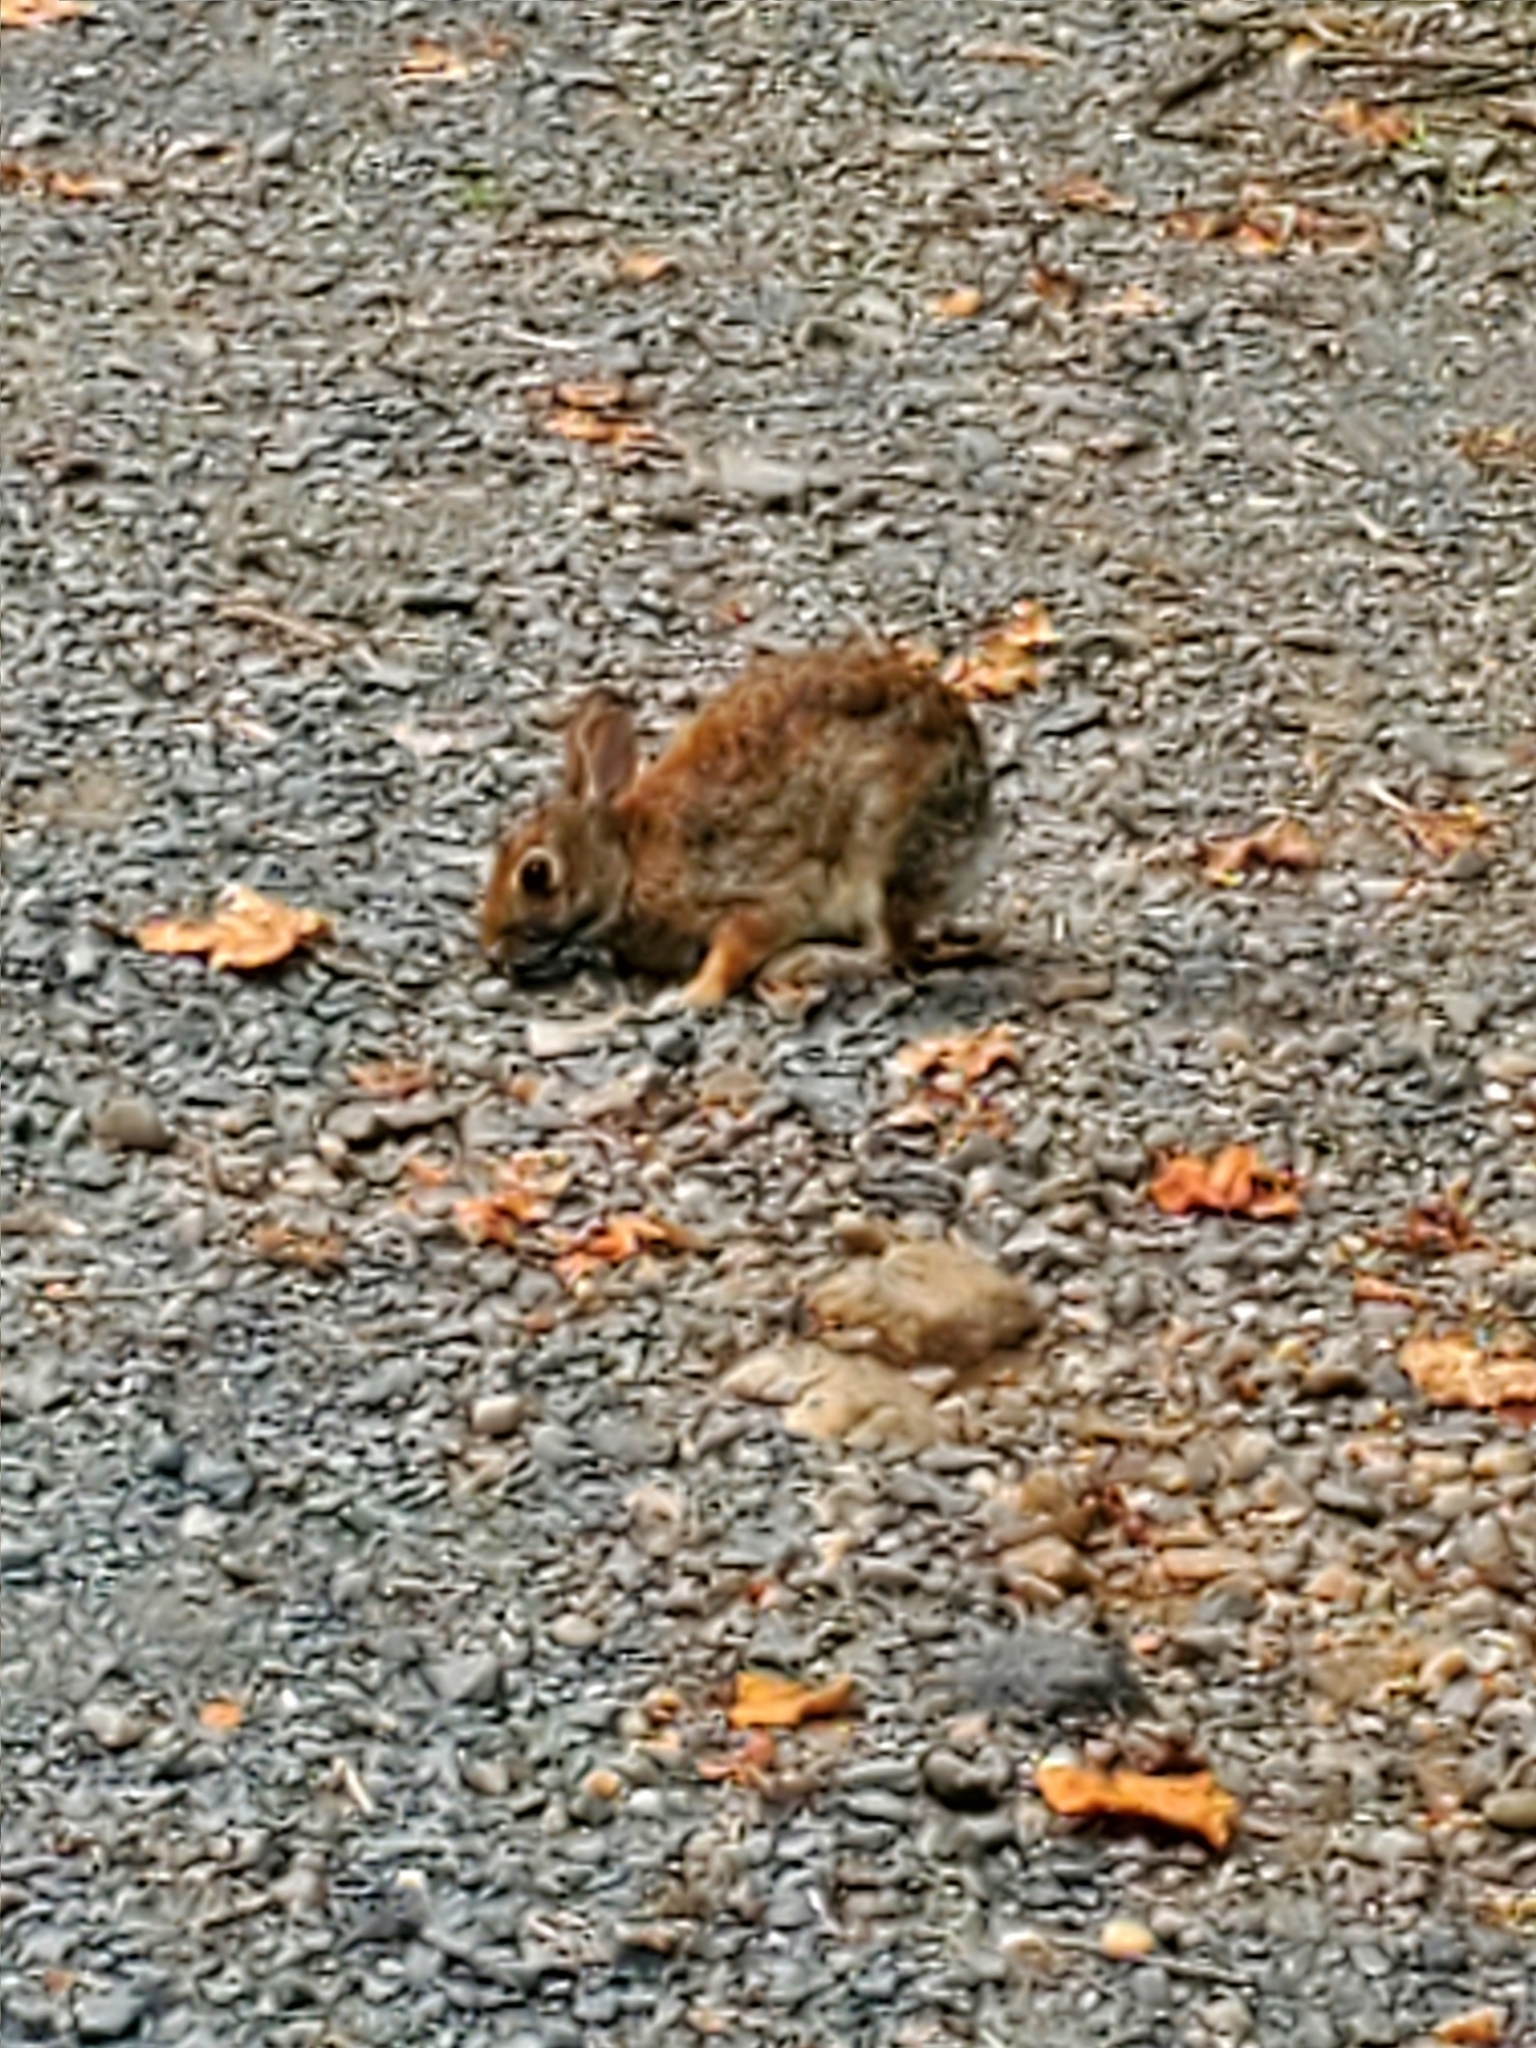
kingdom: Animalia
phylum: Chordata
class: Mammalia
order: Lagomorpha
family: Leporidae
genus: Sylvilagus
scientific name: Sylvilagus floridanus
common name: Eastern cottontail
